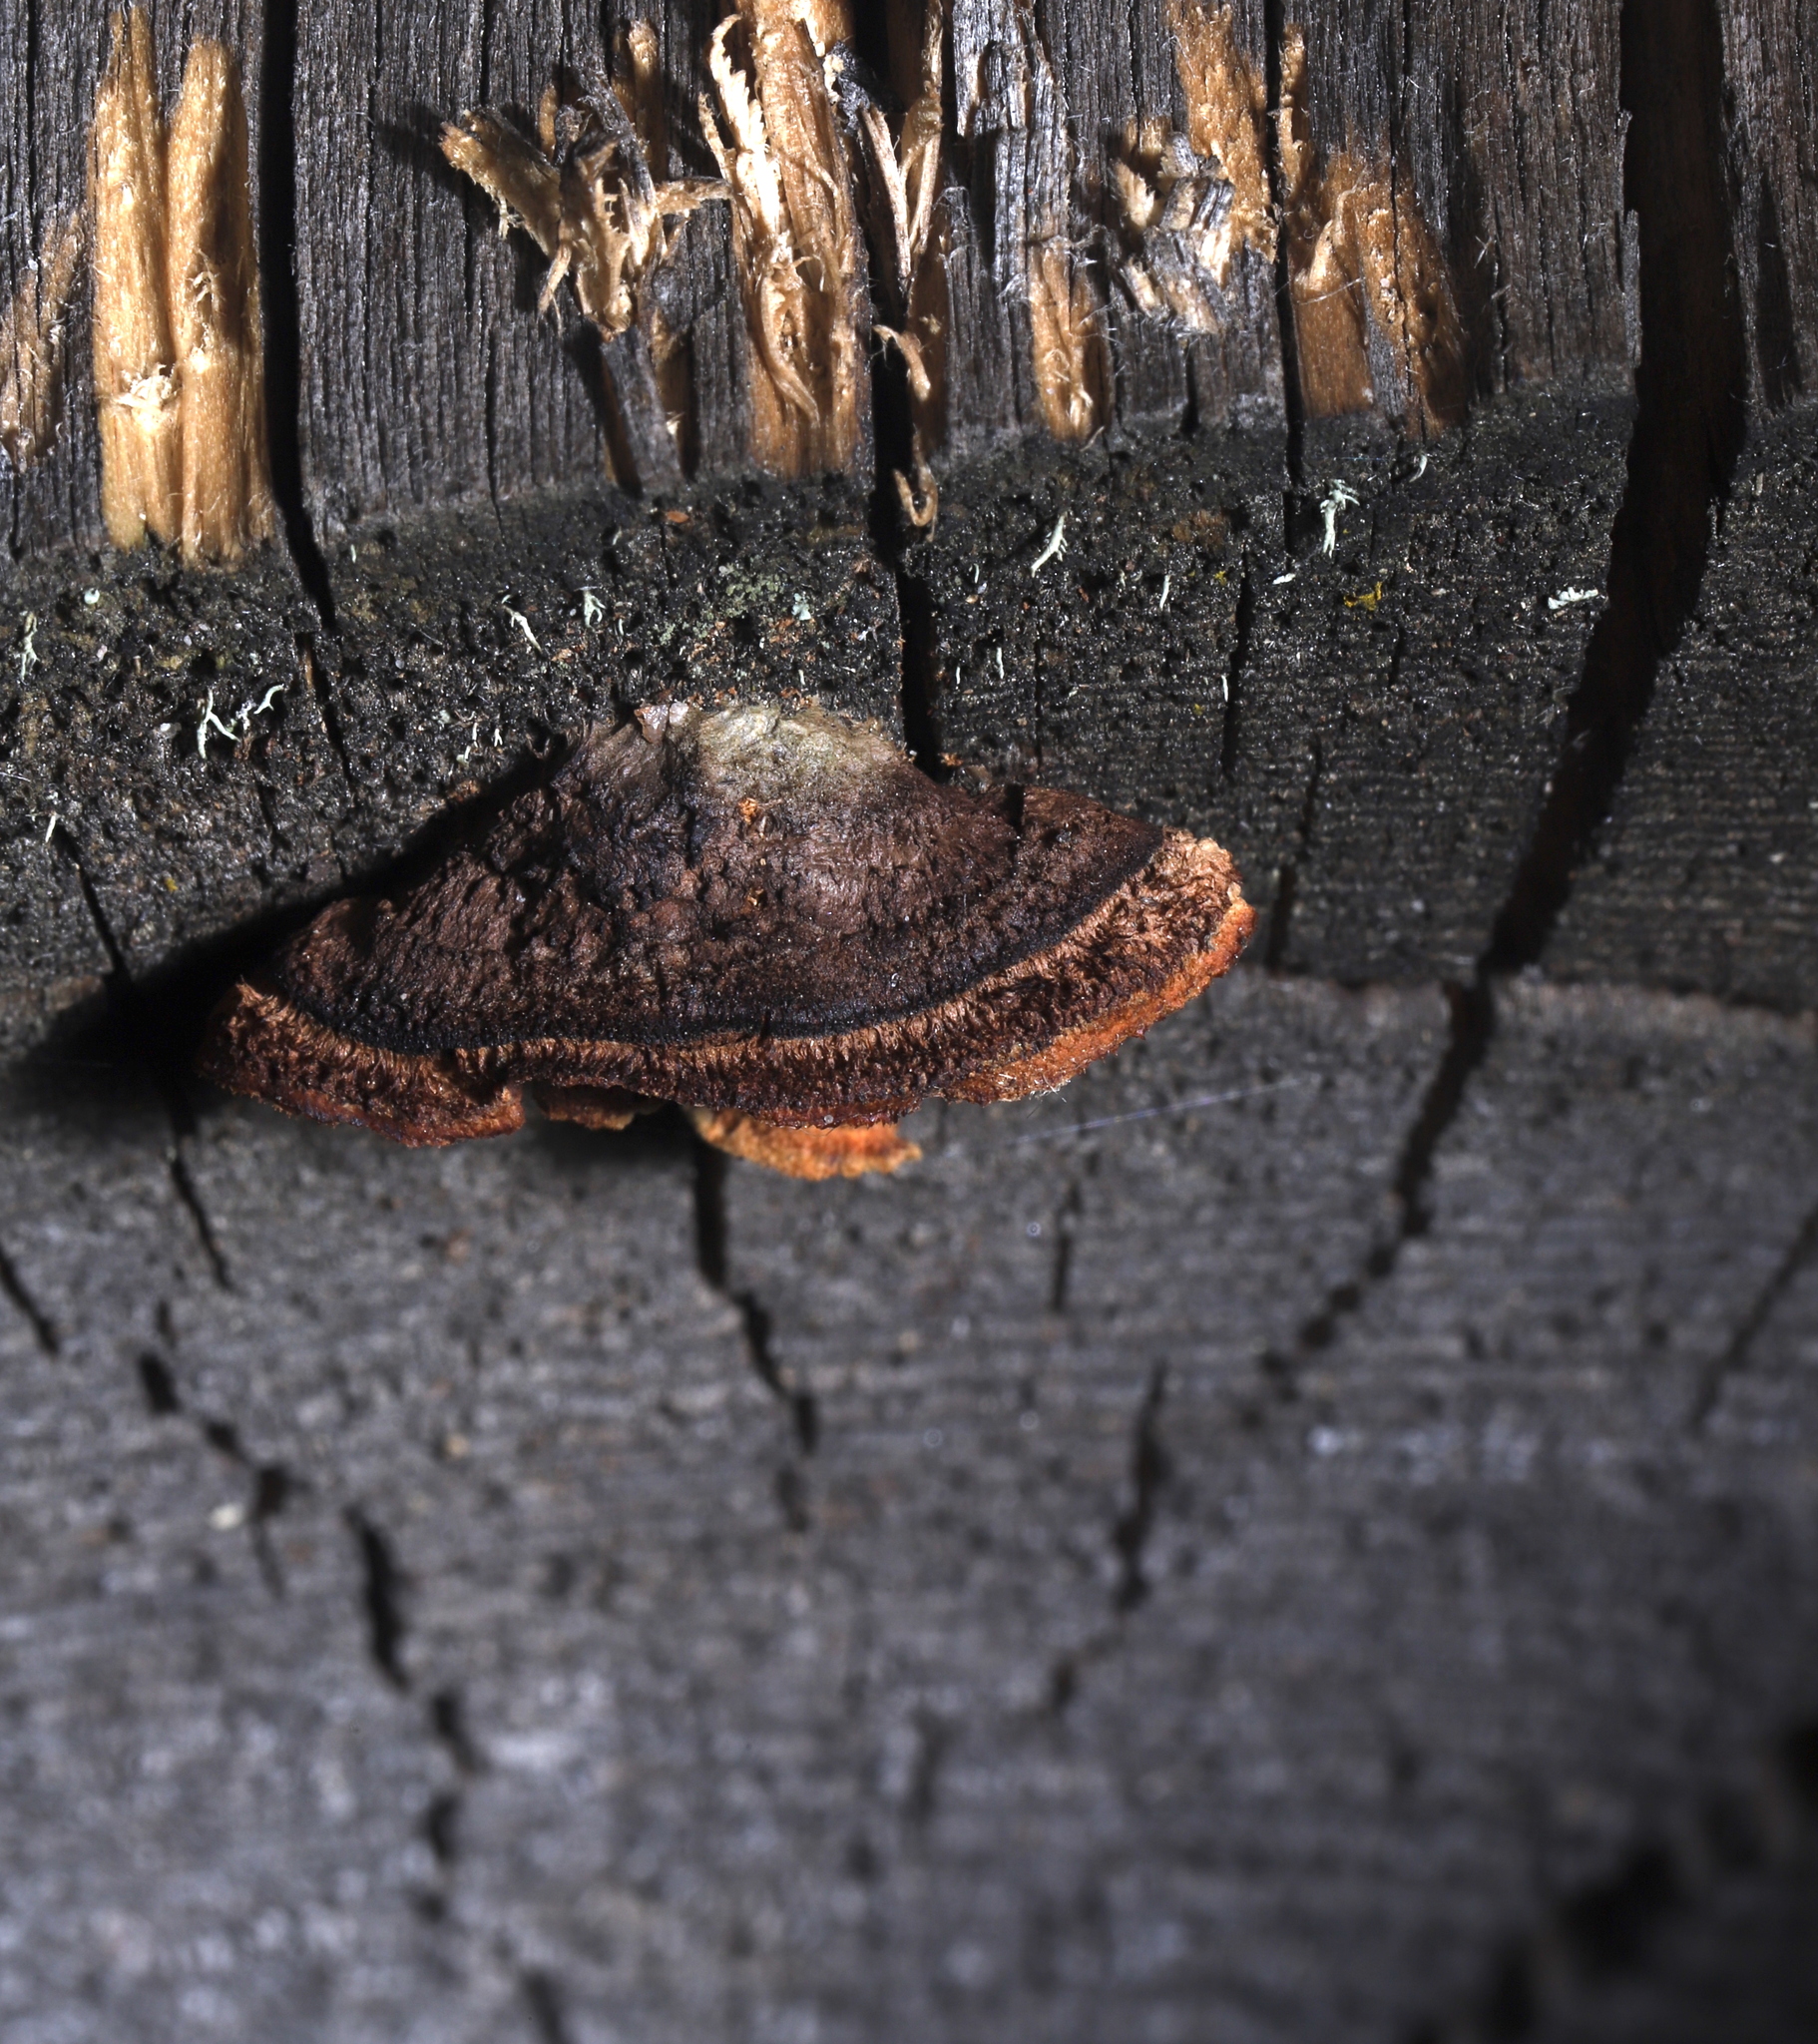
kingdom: Fungi
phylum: Basidiomycota
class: Agaricomycetes
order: Gloeophyllales
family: Gloeophyllaceae
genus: Gloeophyllum
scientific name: Gloeophyllum sepiarium
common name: Conifer mazegill
